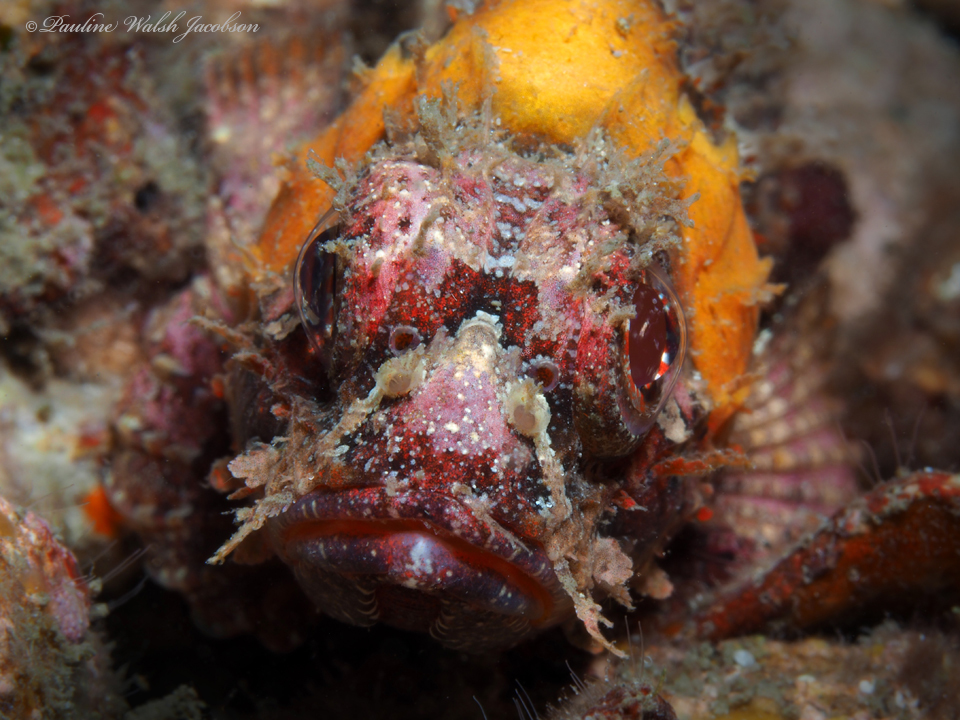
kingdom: Animalia
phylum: Chordata
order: Scorpaeniformes
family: Scorpaenidae
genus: Scorpaena
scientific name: Scorpaena brasiliensis
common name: Barbfish
